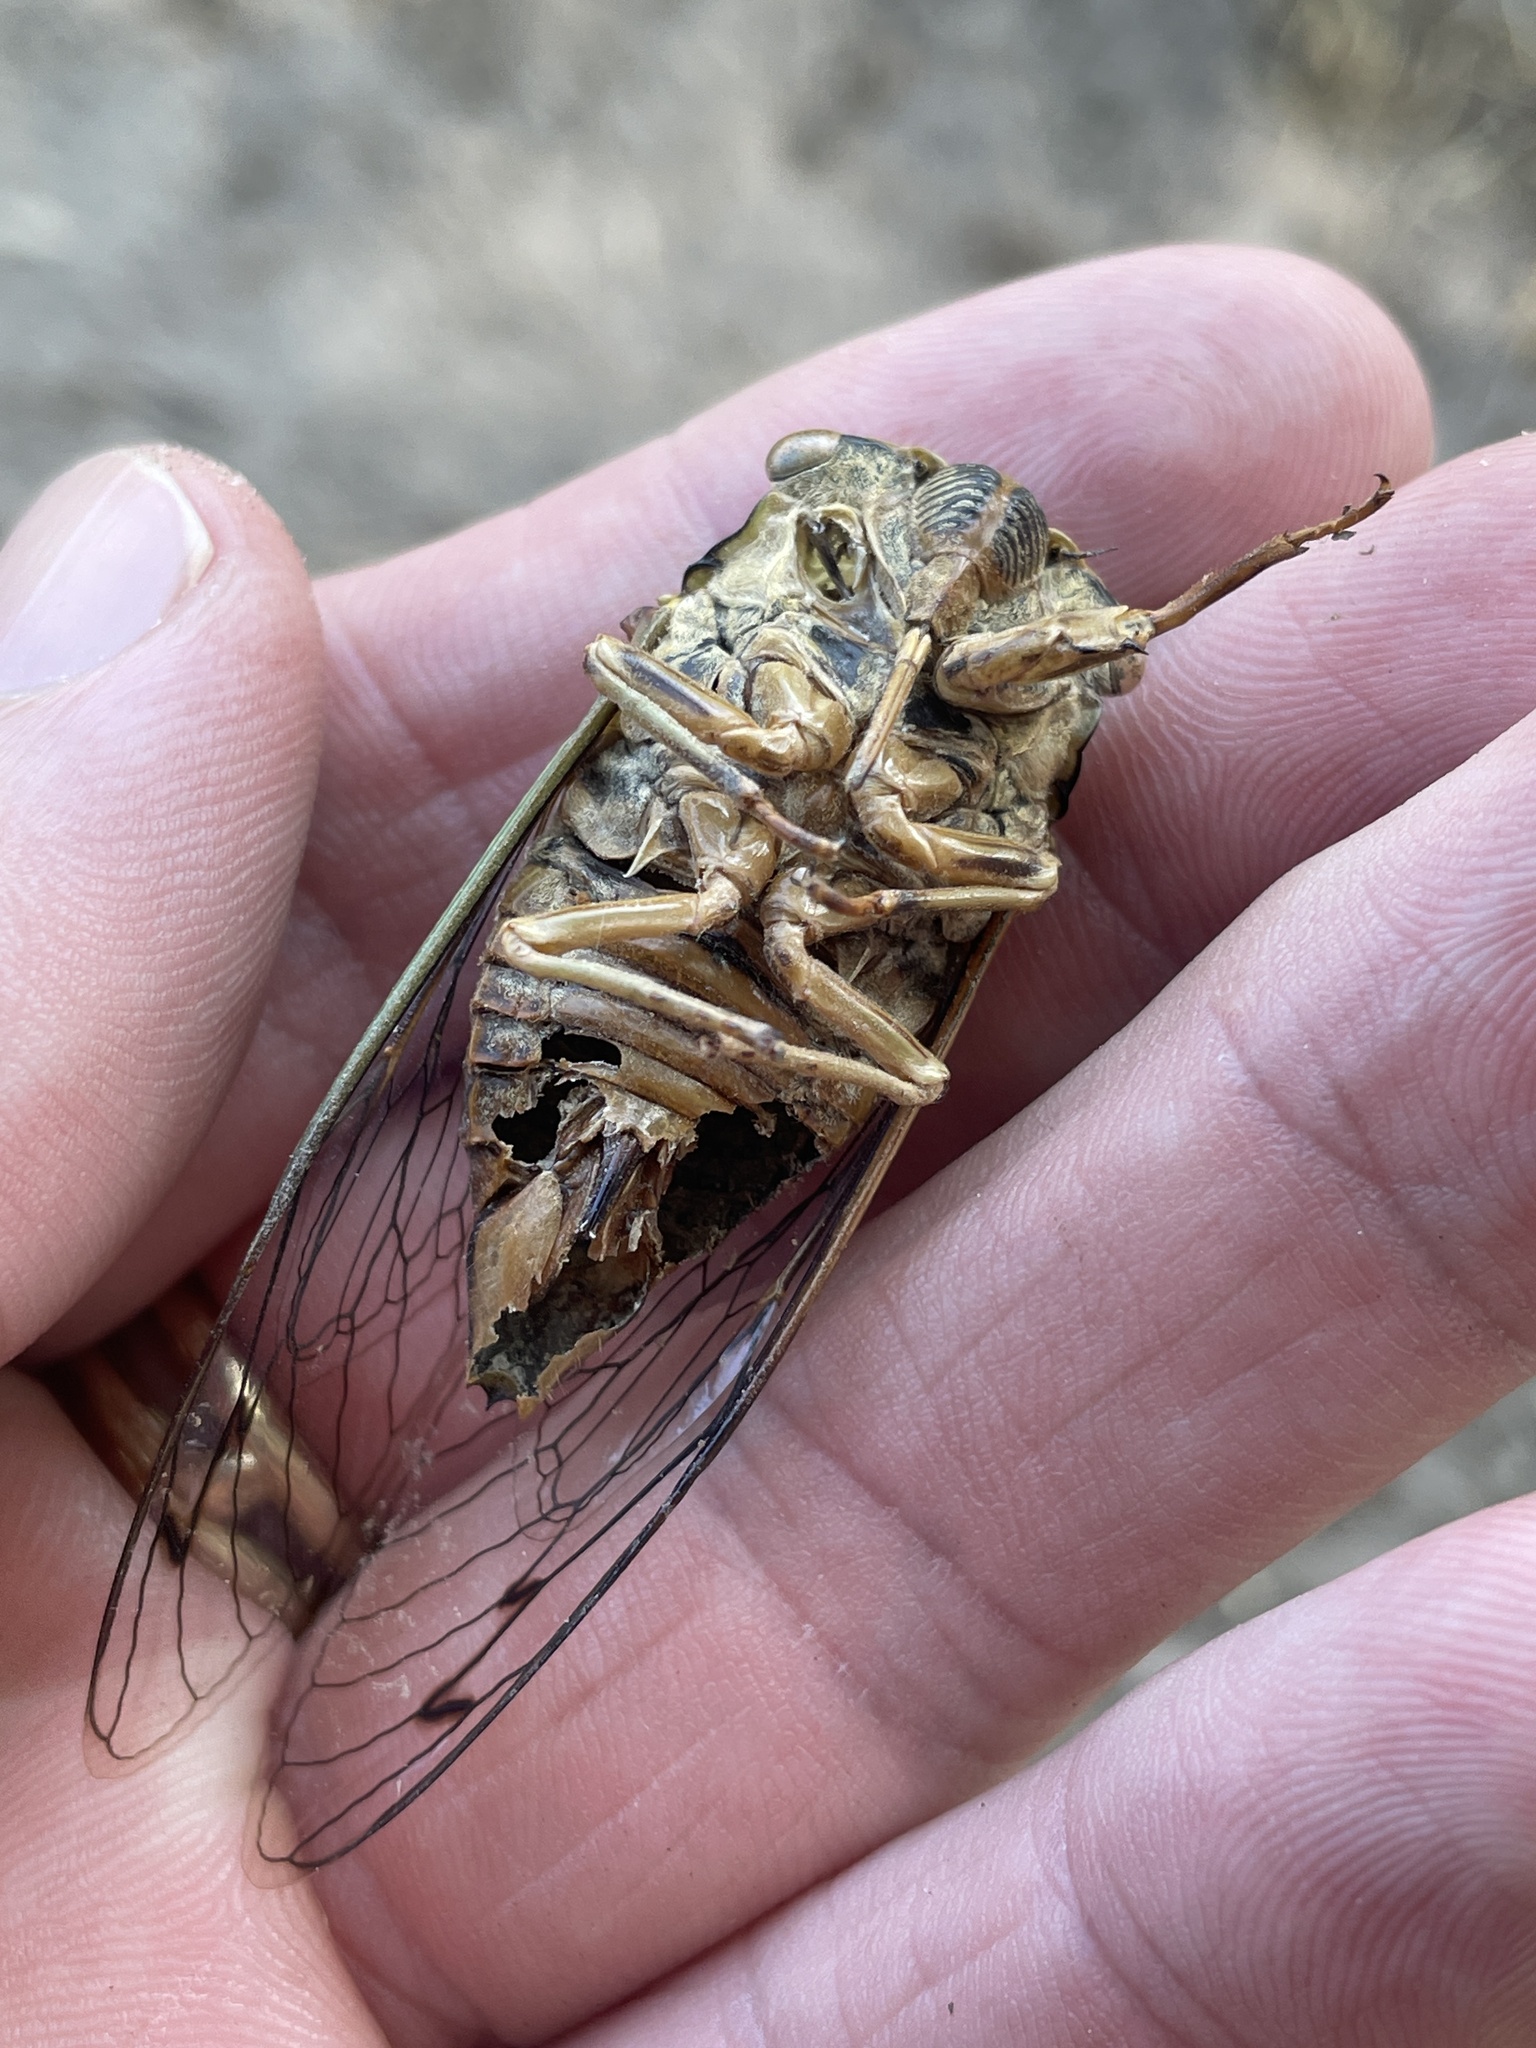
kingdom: Animalia
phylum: Arthropoda
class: Insecta
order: Hemiptera
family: Cicadidae
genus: Megatibicen
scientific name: Megatibicen resh
